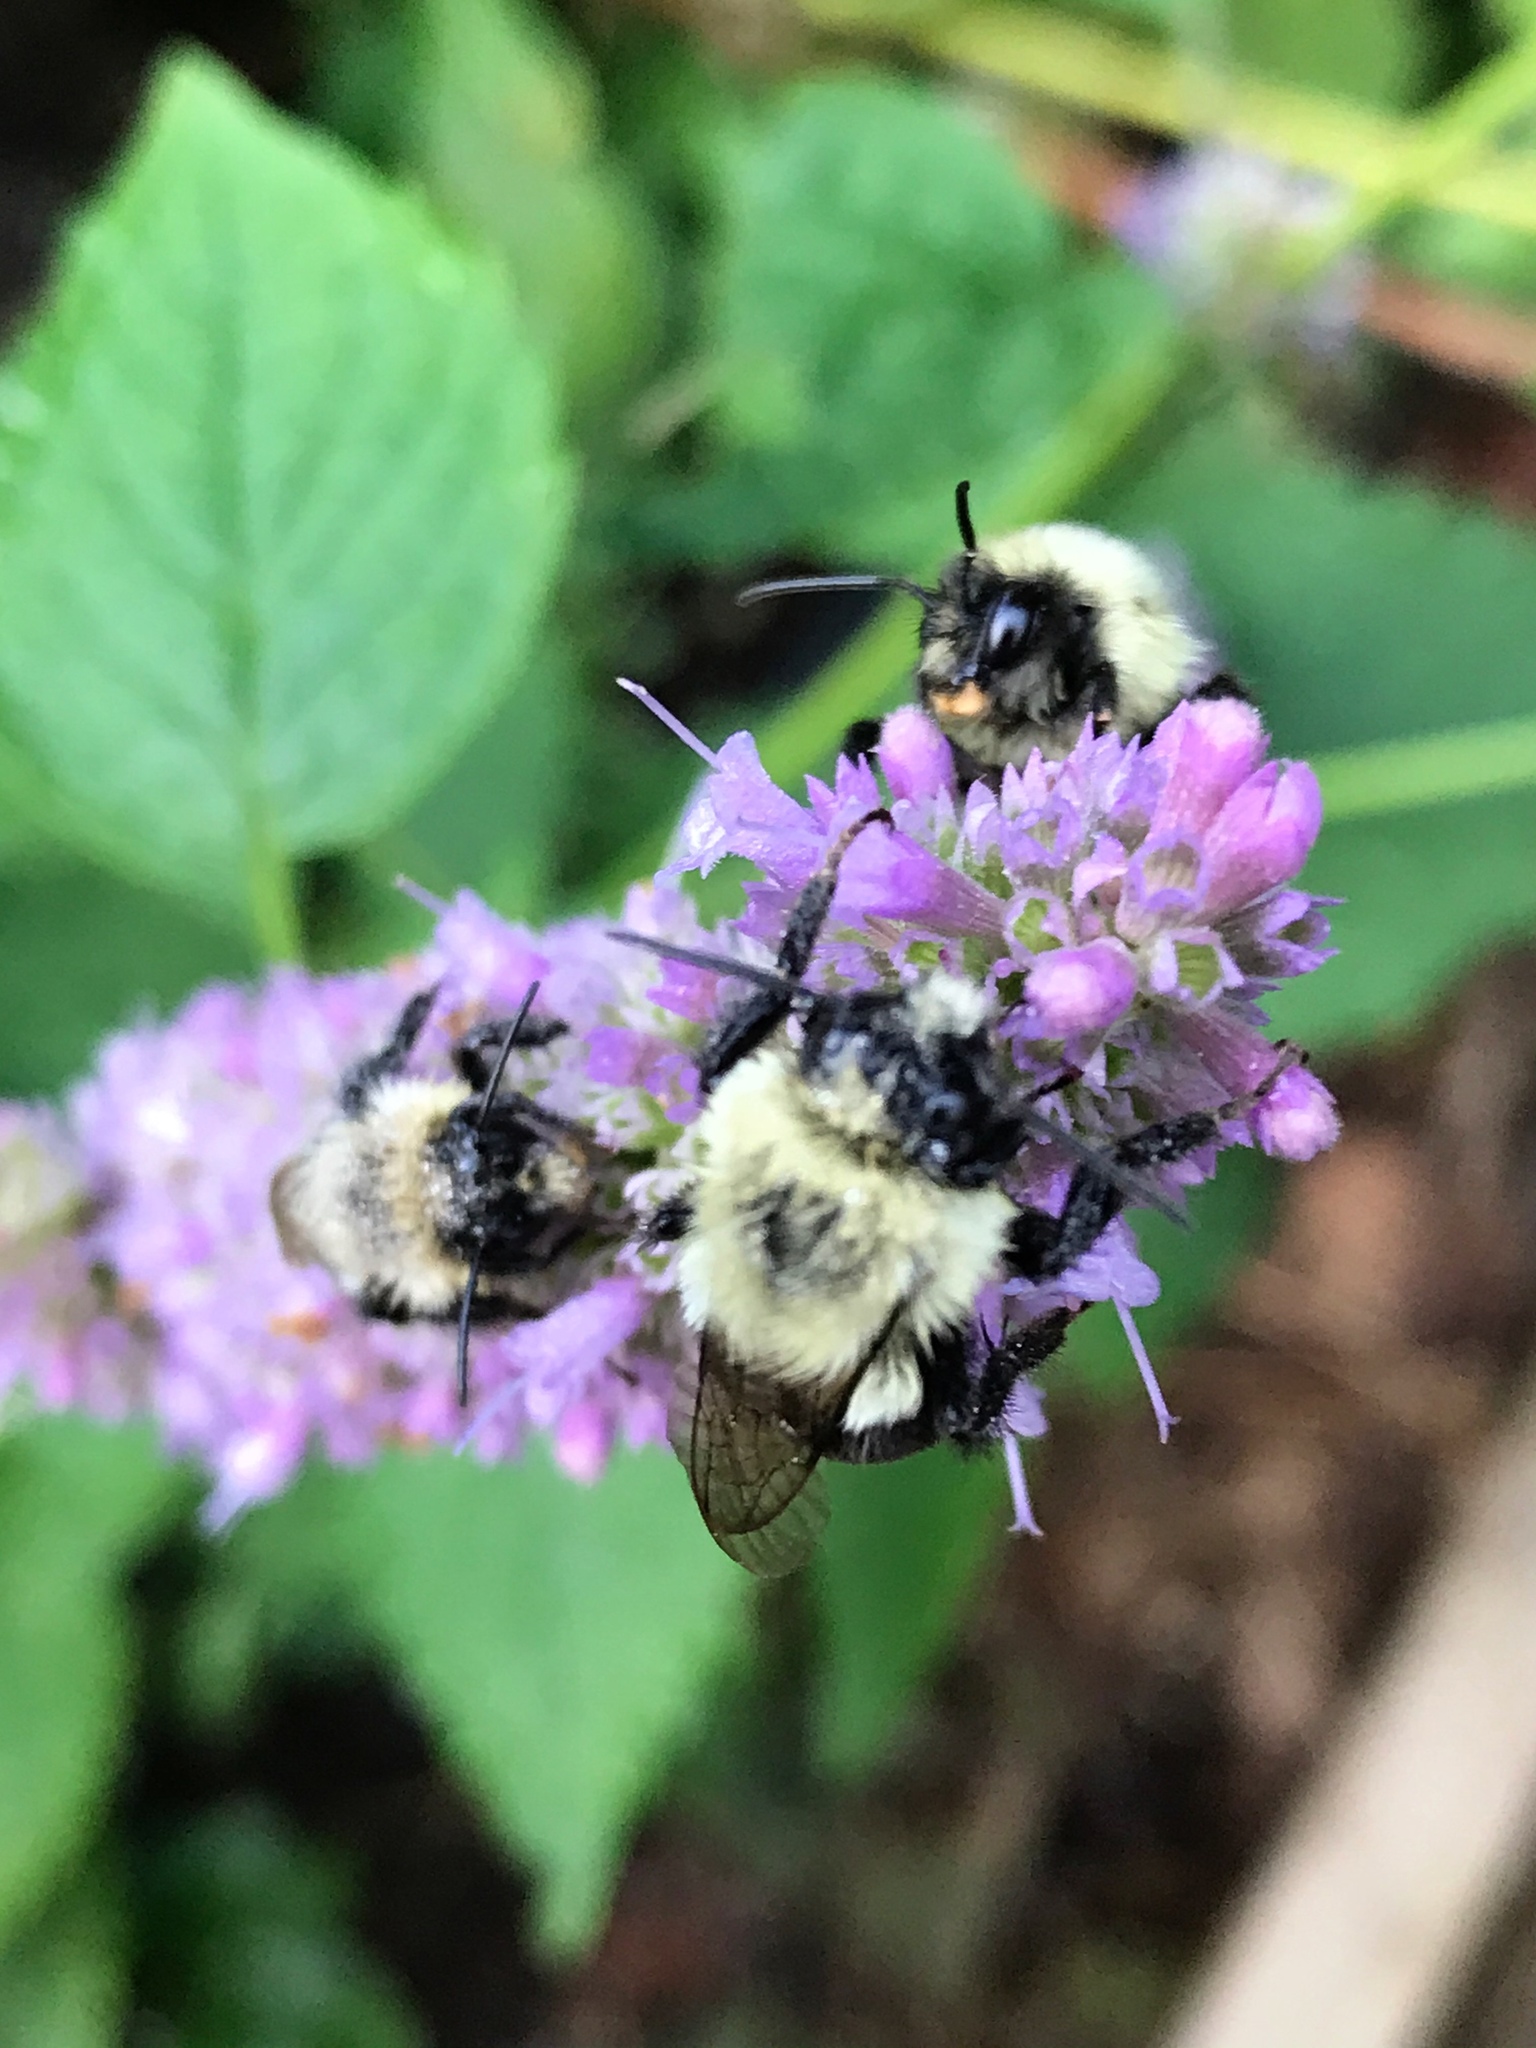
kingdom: Animalia
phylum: Arthropoda
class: Insecta
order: Hymenoptera
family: Apidae
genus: Bombus
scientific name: Bombus impatiens
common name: Common eastern bumble bee
